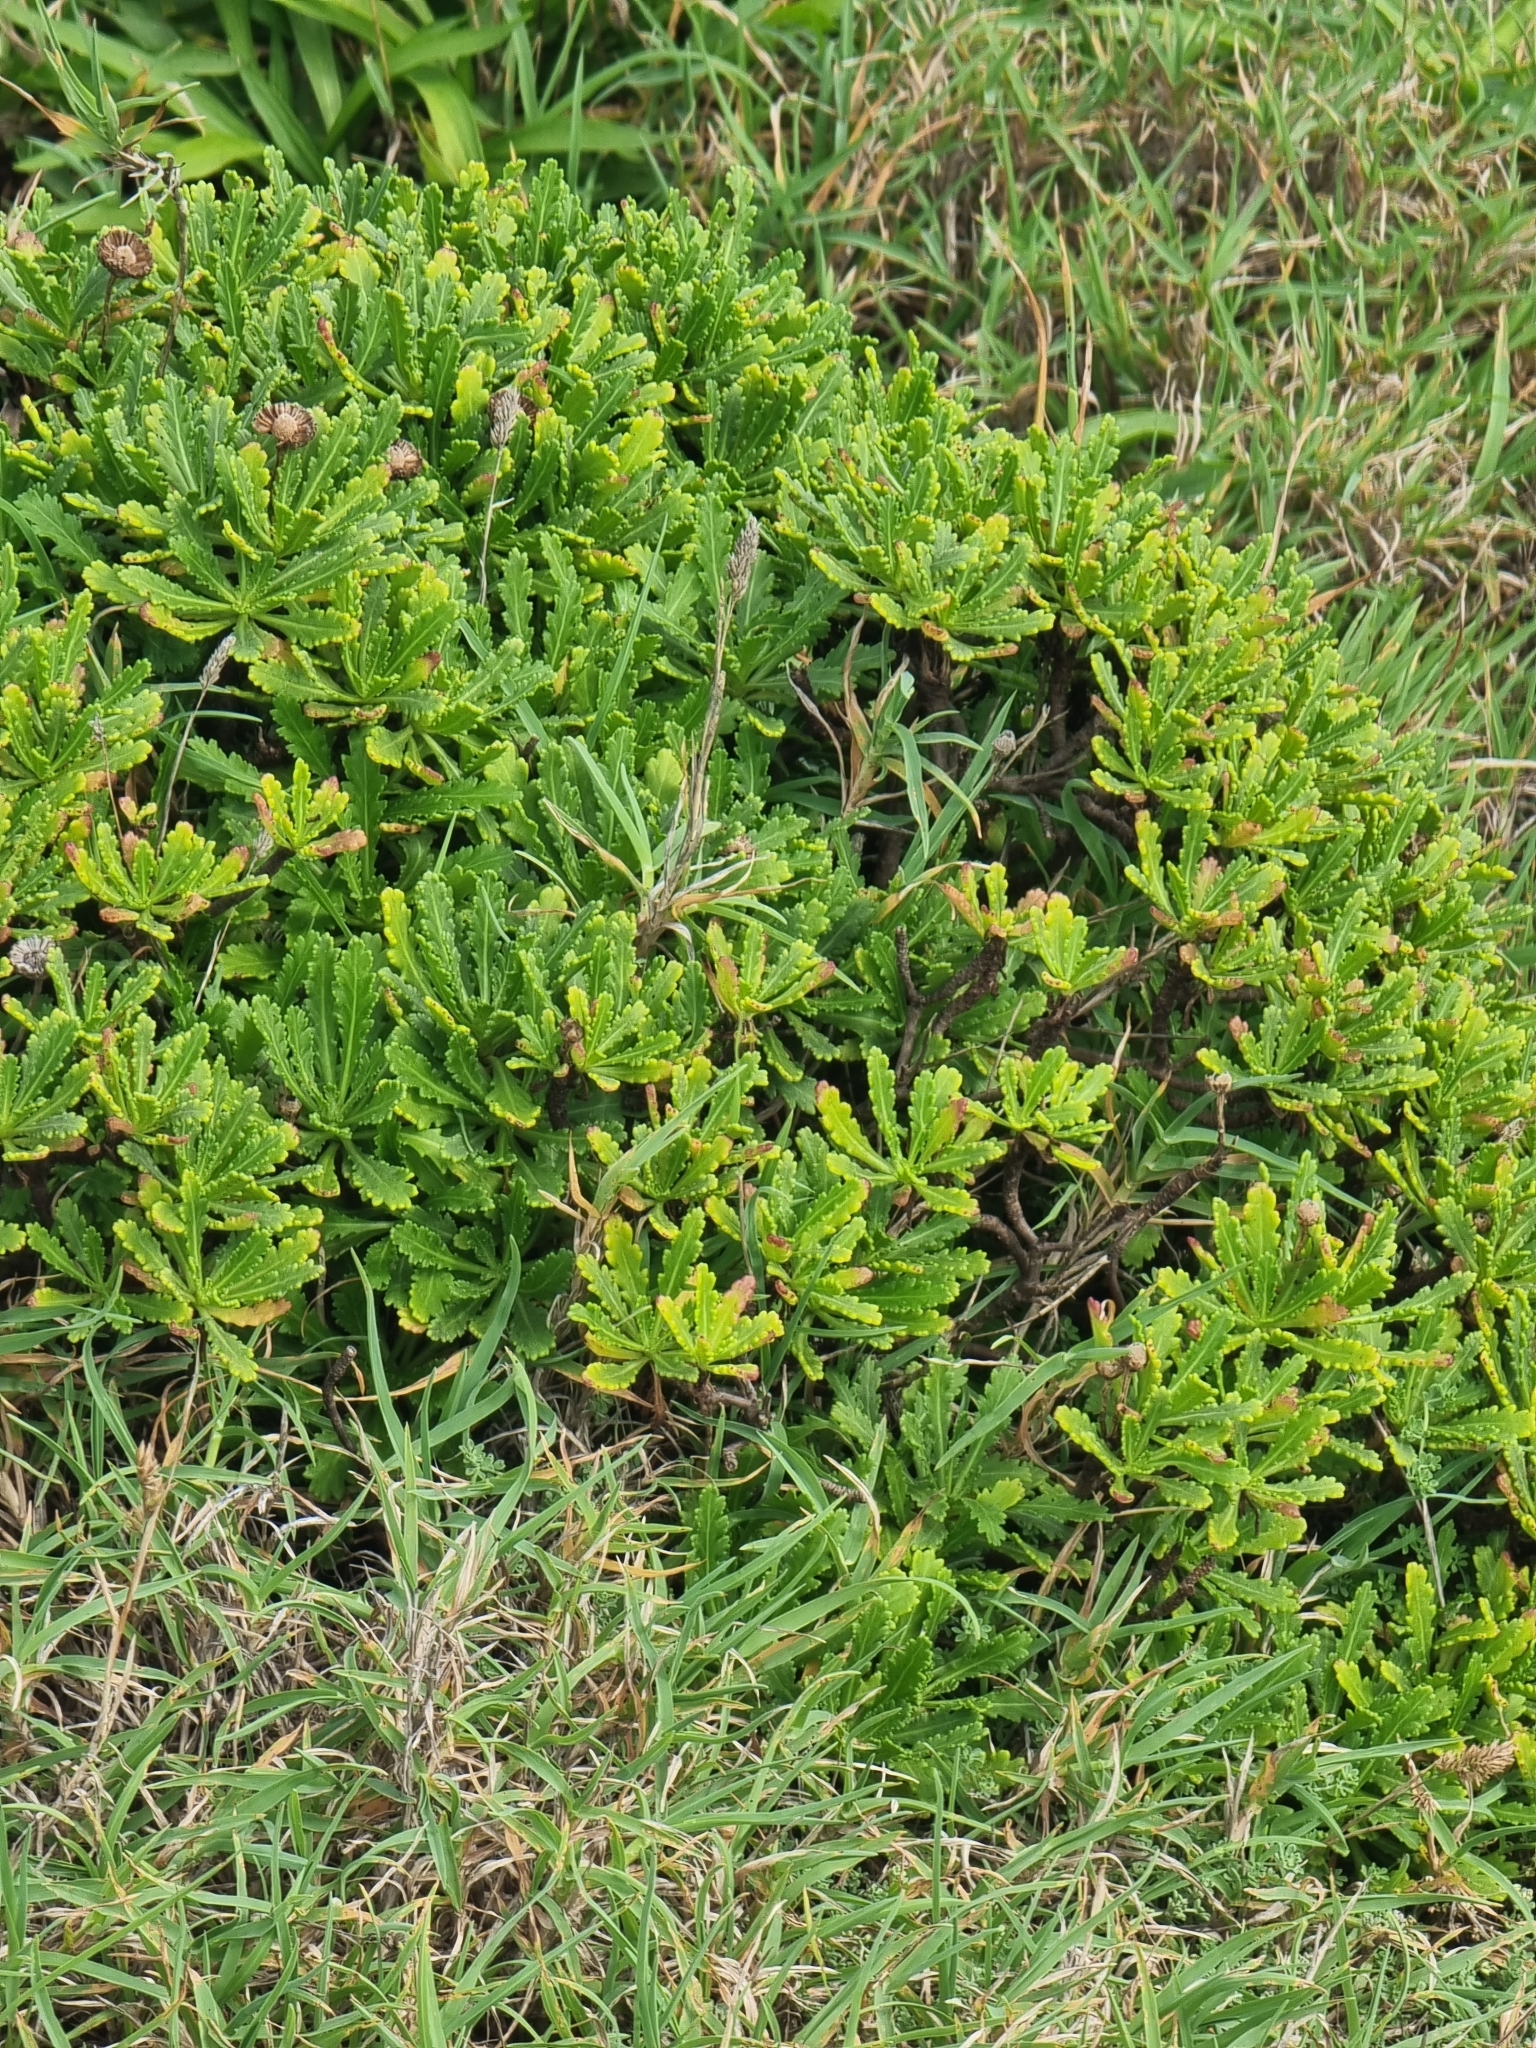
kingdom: Plantae
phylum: Tracheophyta
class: Magnoliopsida
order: Asterales
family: Asteraceae
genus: Argyranthemum
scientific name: Argyranthemum pinnatifidum
